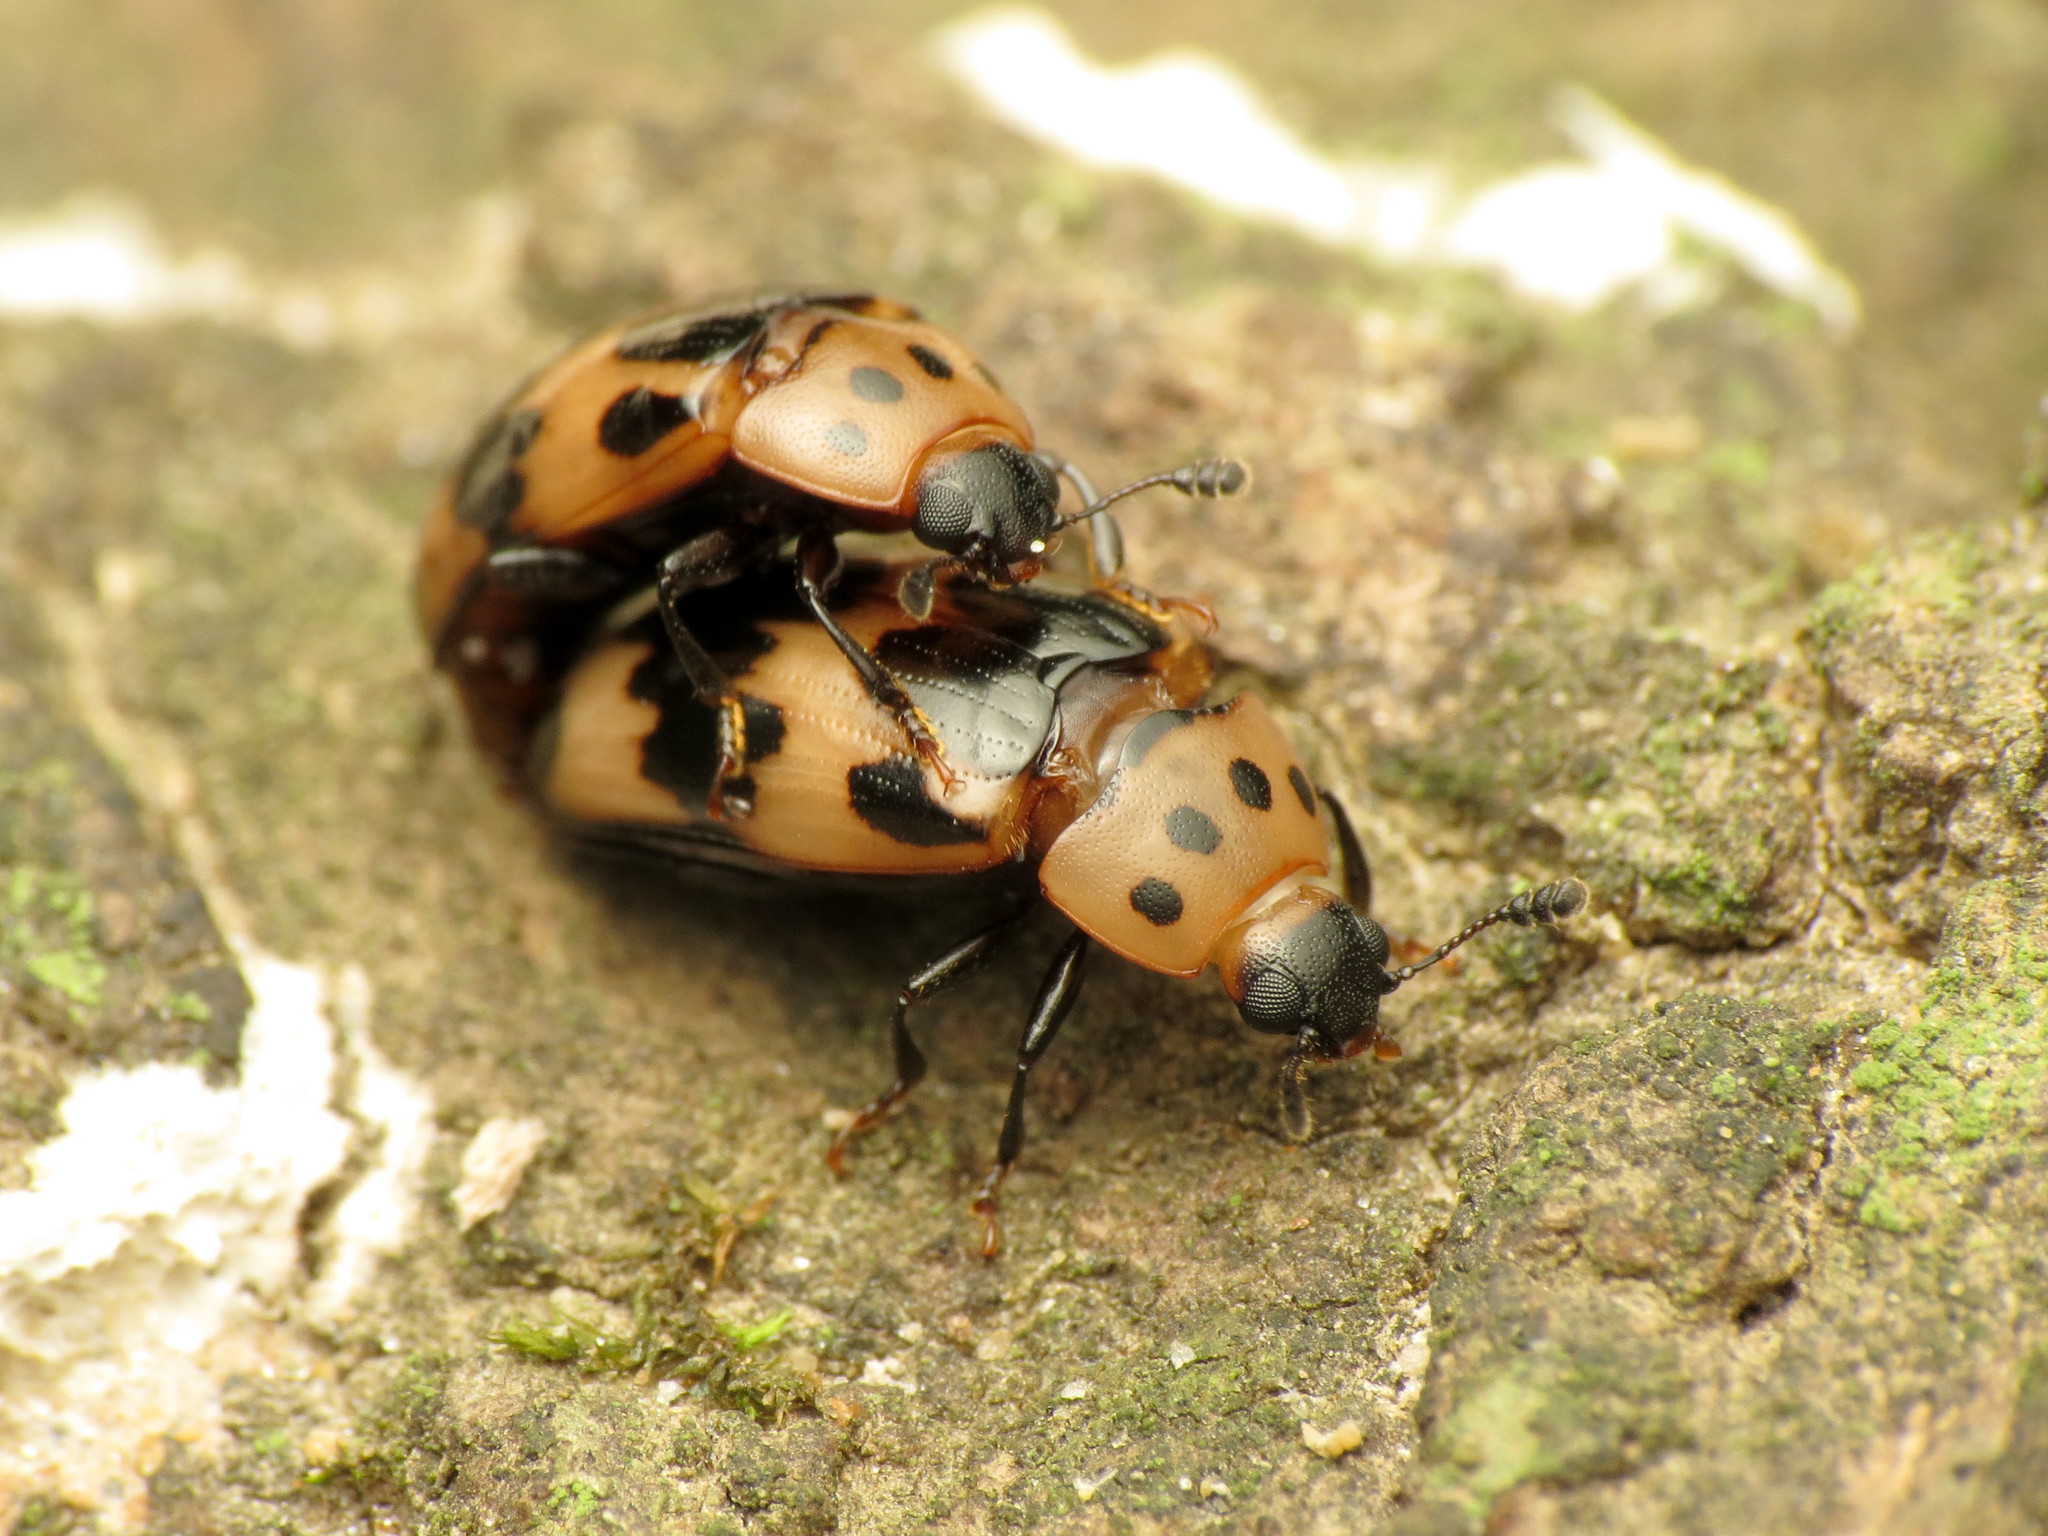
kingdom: Animalia
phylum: Arthropoda
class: Insecta
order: Coleoptera
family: Erotylidae
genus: Ischyrus
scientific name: Ischyrus quadripunctatus
